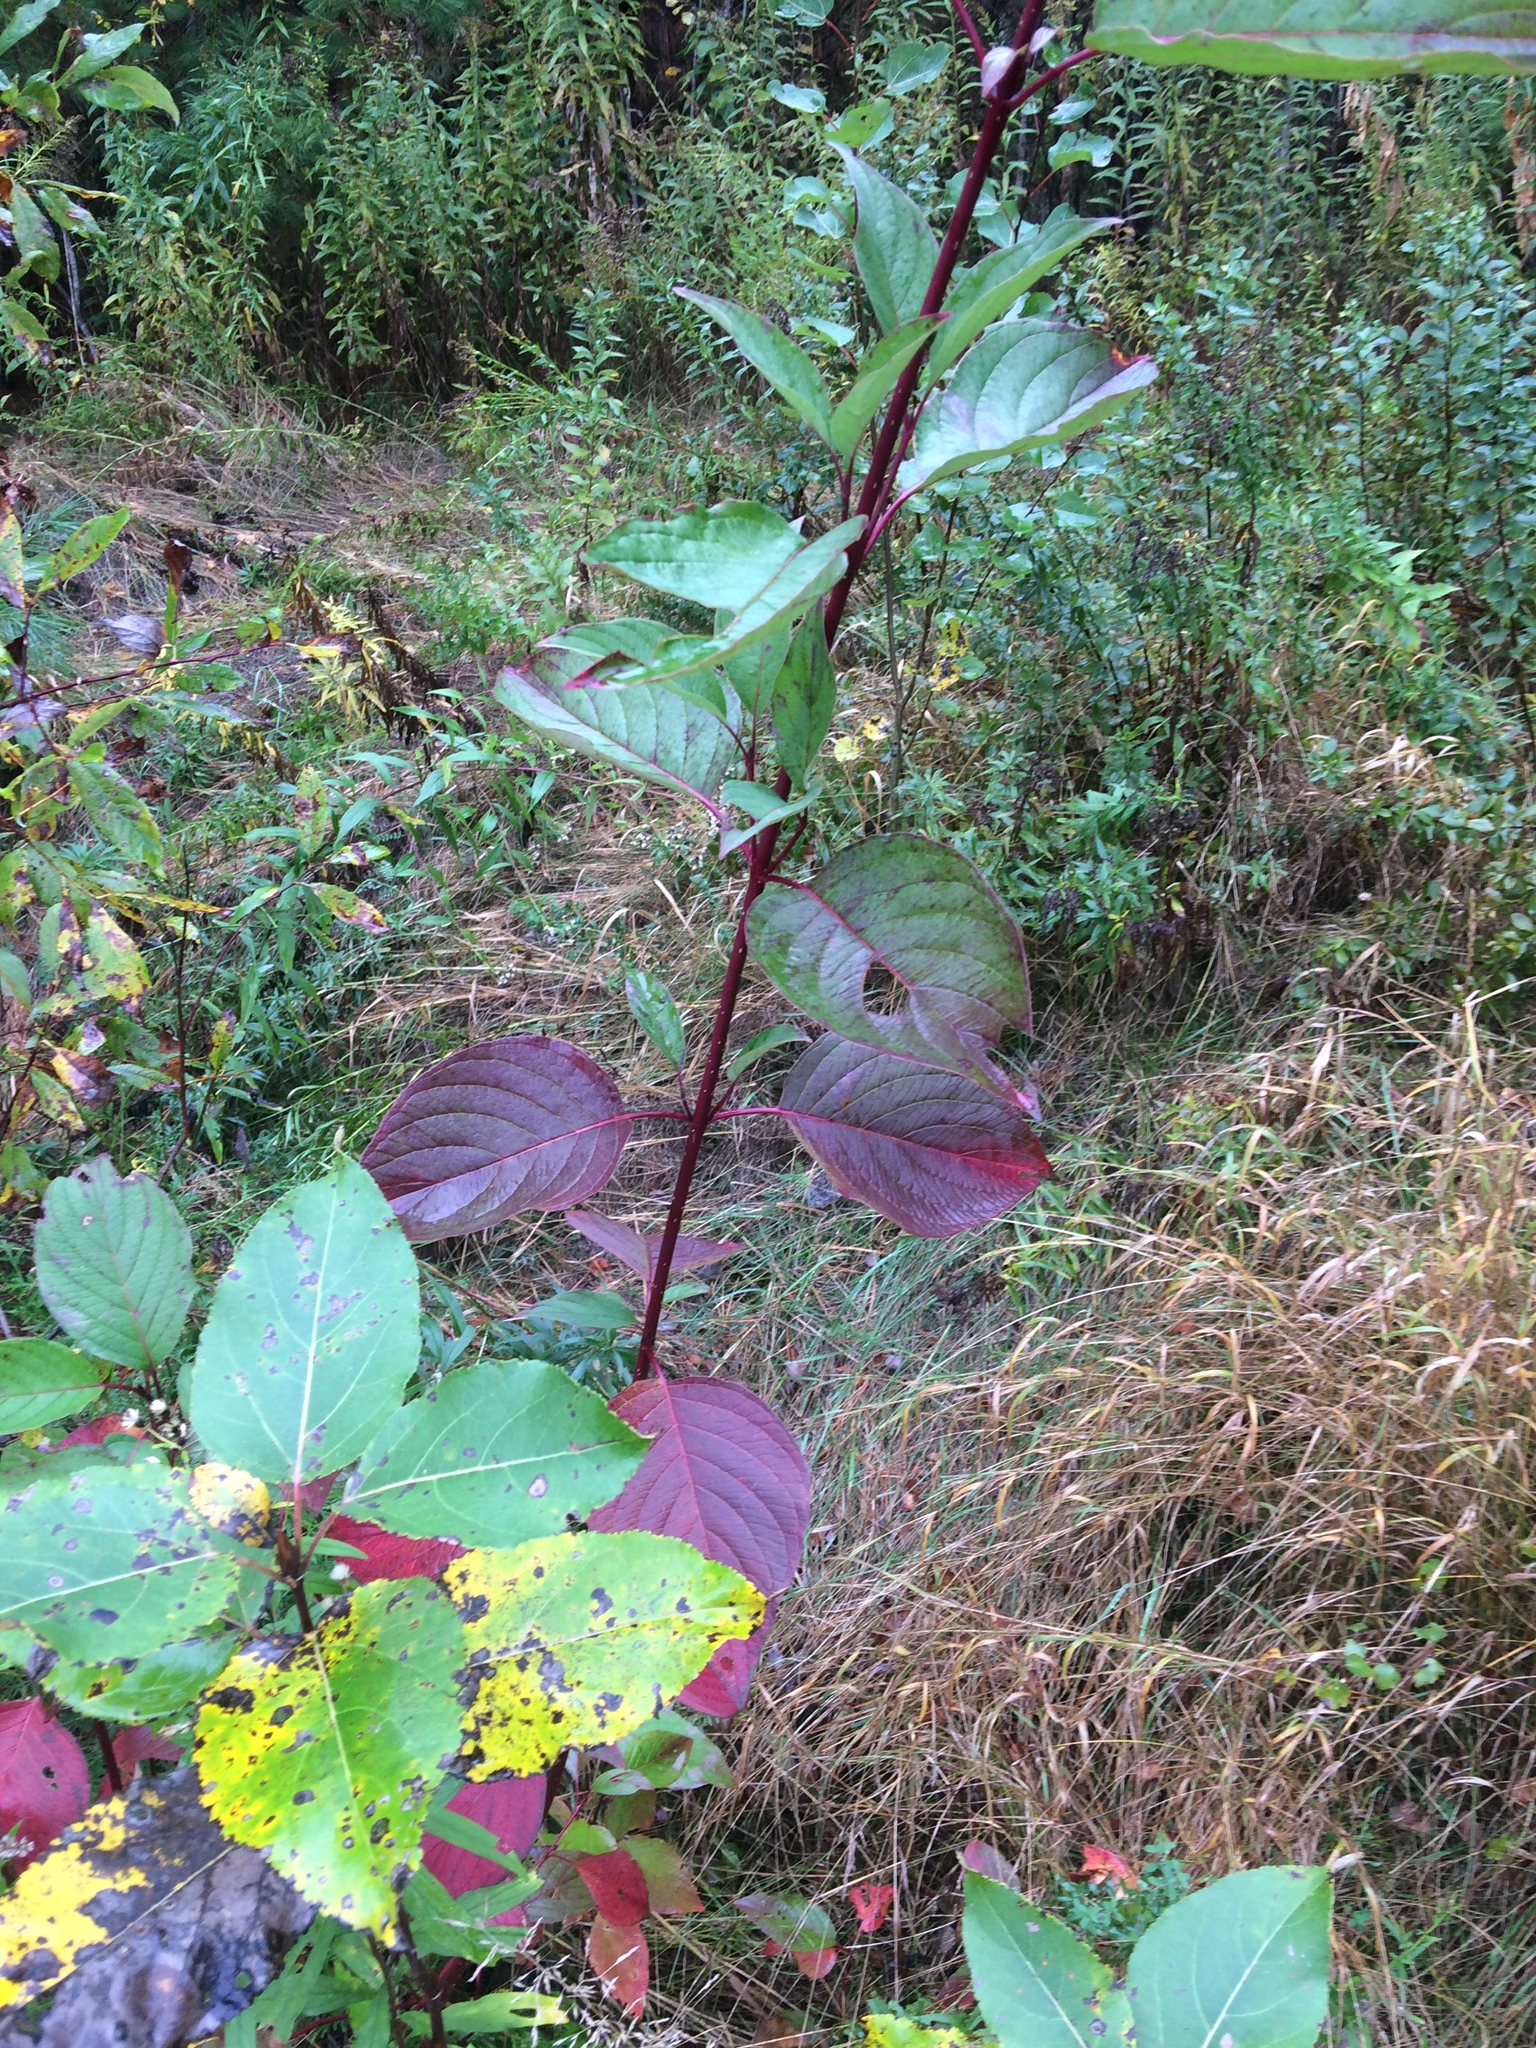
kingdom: Plantae
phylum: Tracheophyta
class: Magnoliopsida
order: Cornales
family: Cornaceae
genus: Cornus
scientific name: Cornus sericea
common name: Red-osier dogwood
